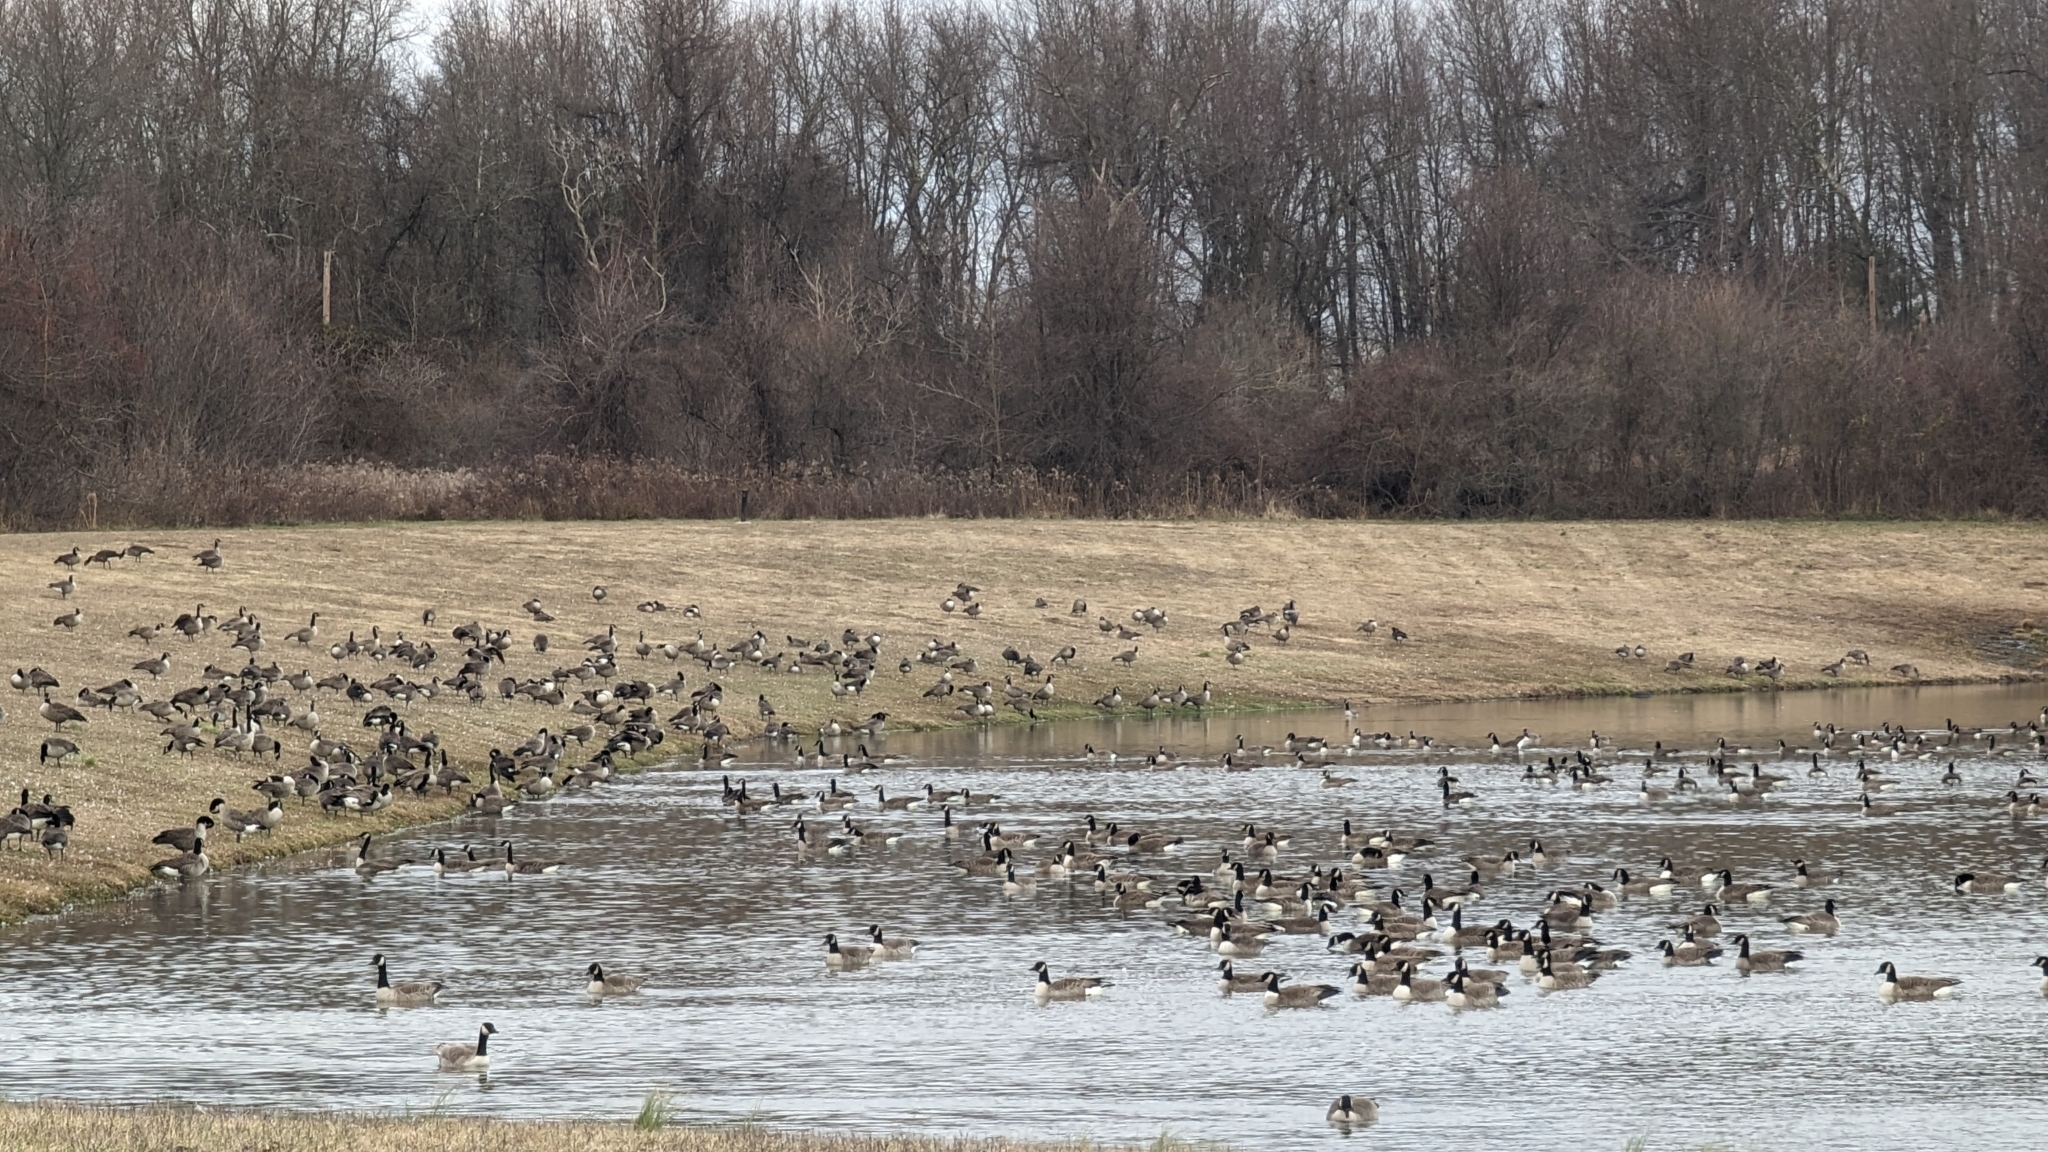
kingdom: Animalia
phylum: Chordata
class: Aves
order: Anseriformes
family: Anatidae
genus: Branta
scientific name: Branta canadensis
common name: Canada goose
